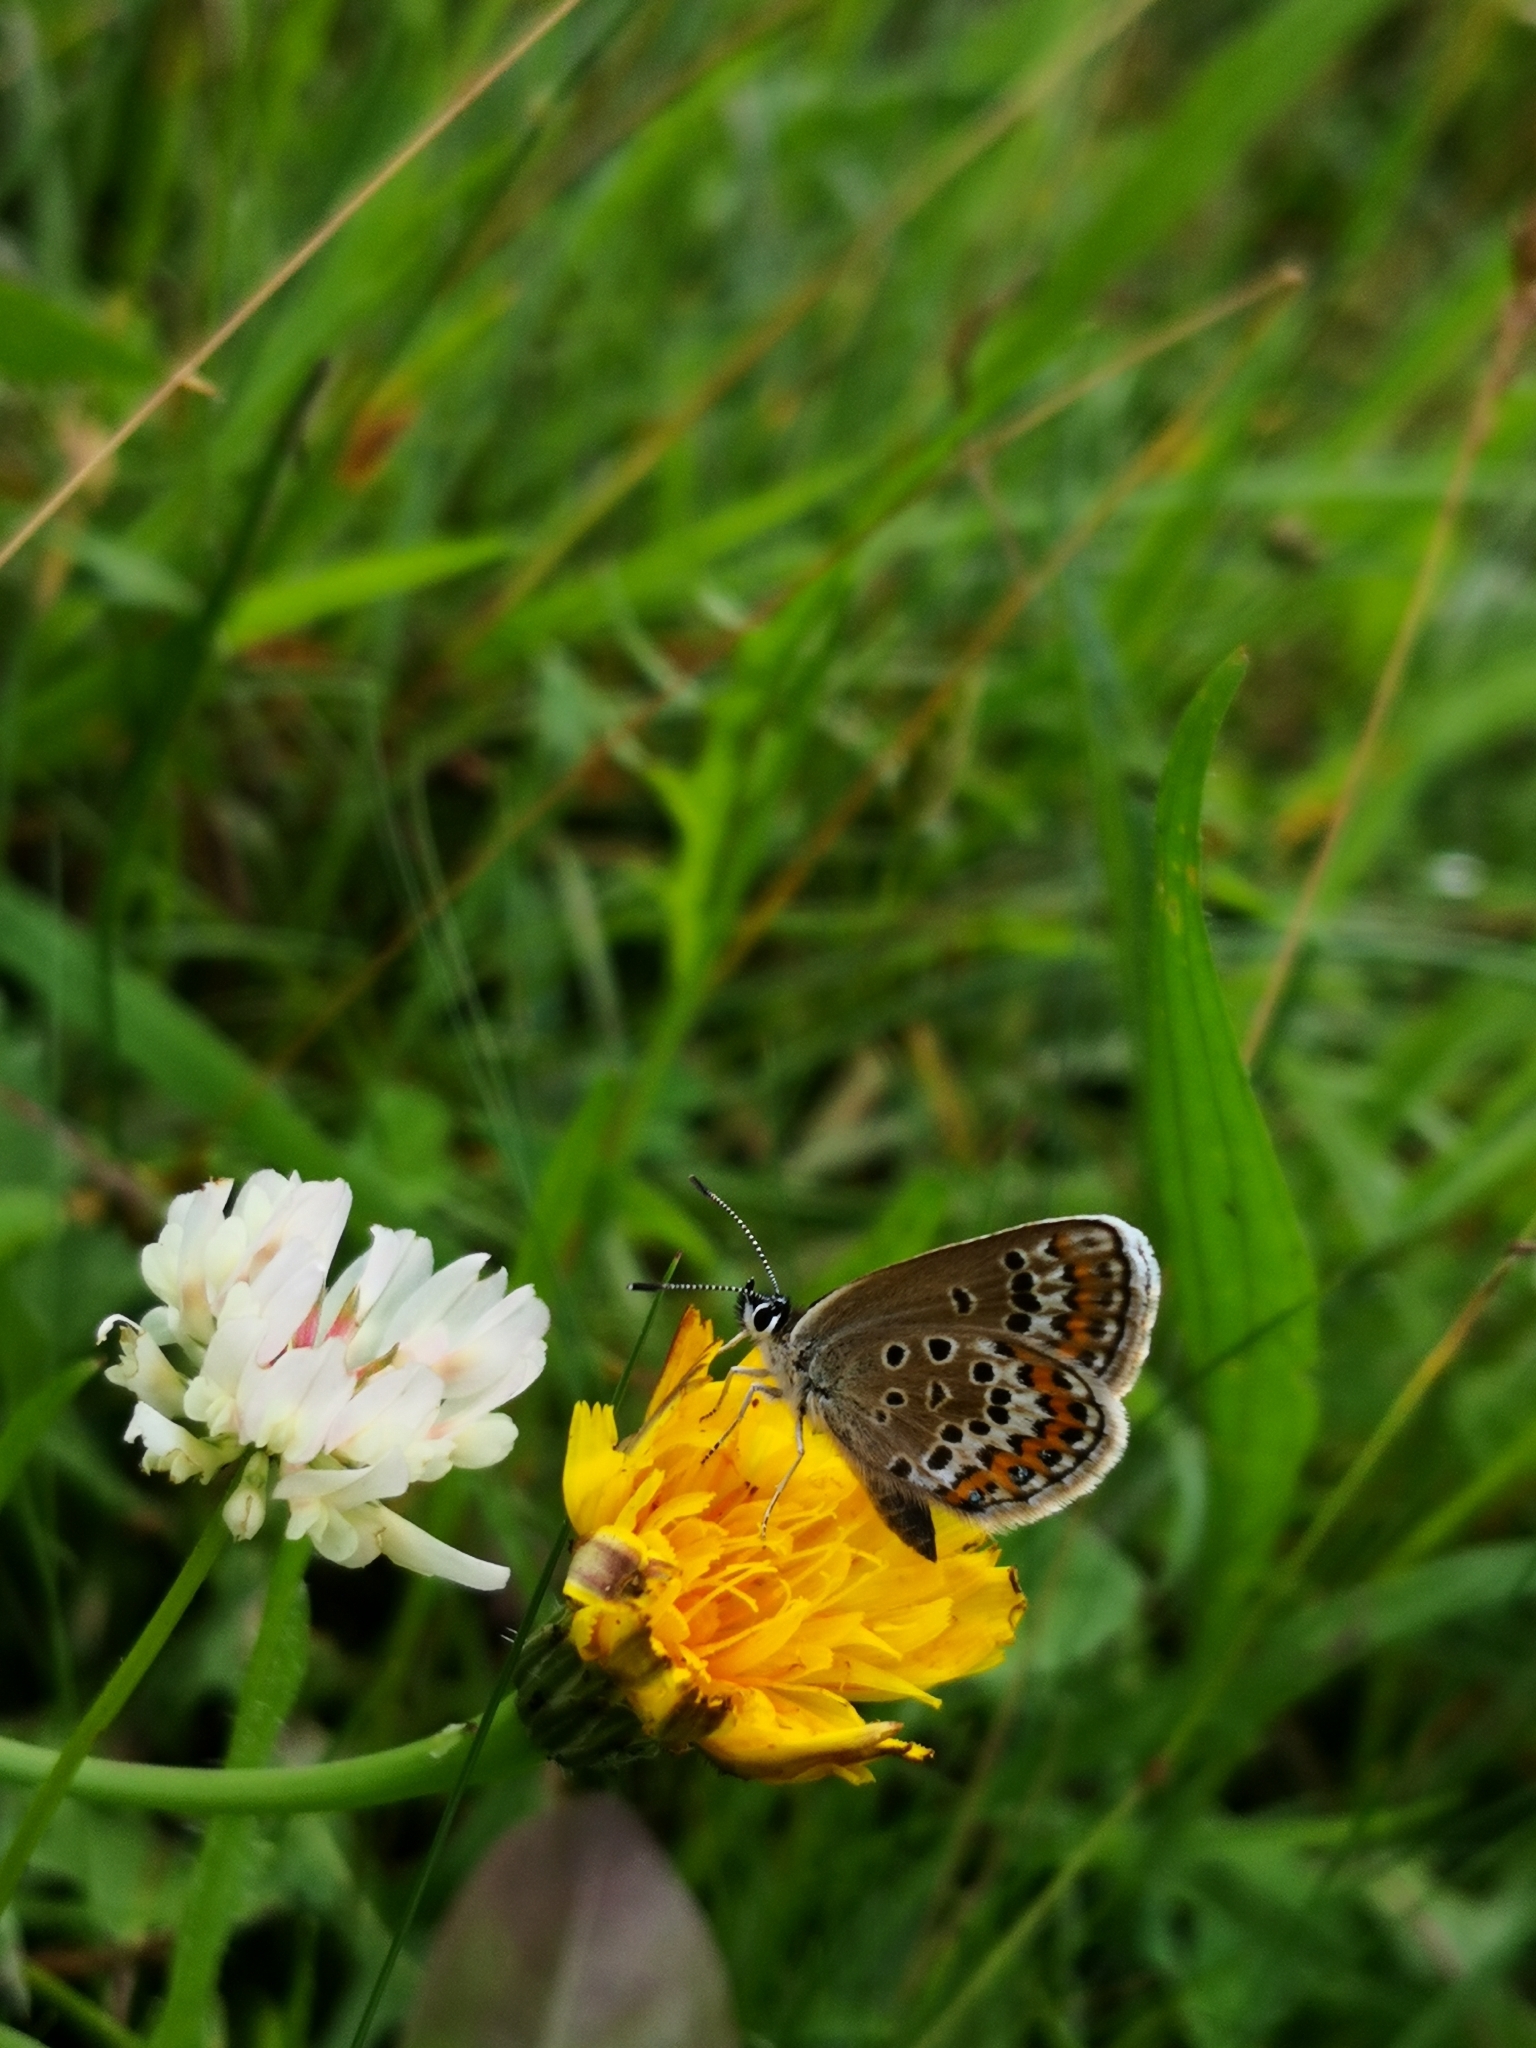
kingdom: Animalia
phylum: Arthropoda
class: Insecta
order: Lepidoptera
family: Lycaenidae
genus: Plebejus
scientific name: Plebejus argus
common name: Silver-studded blue
